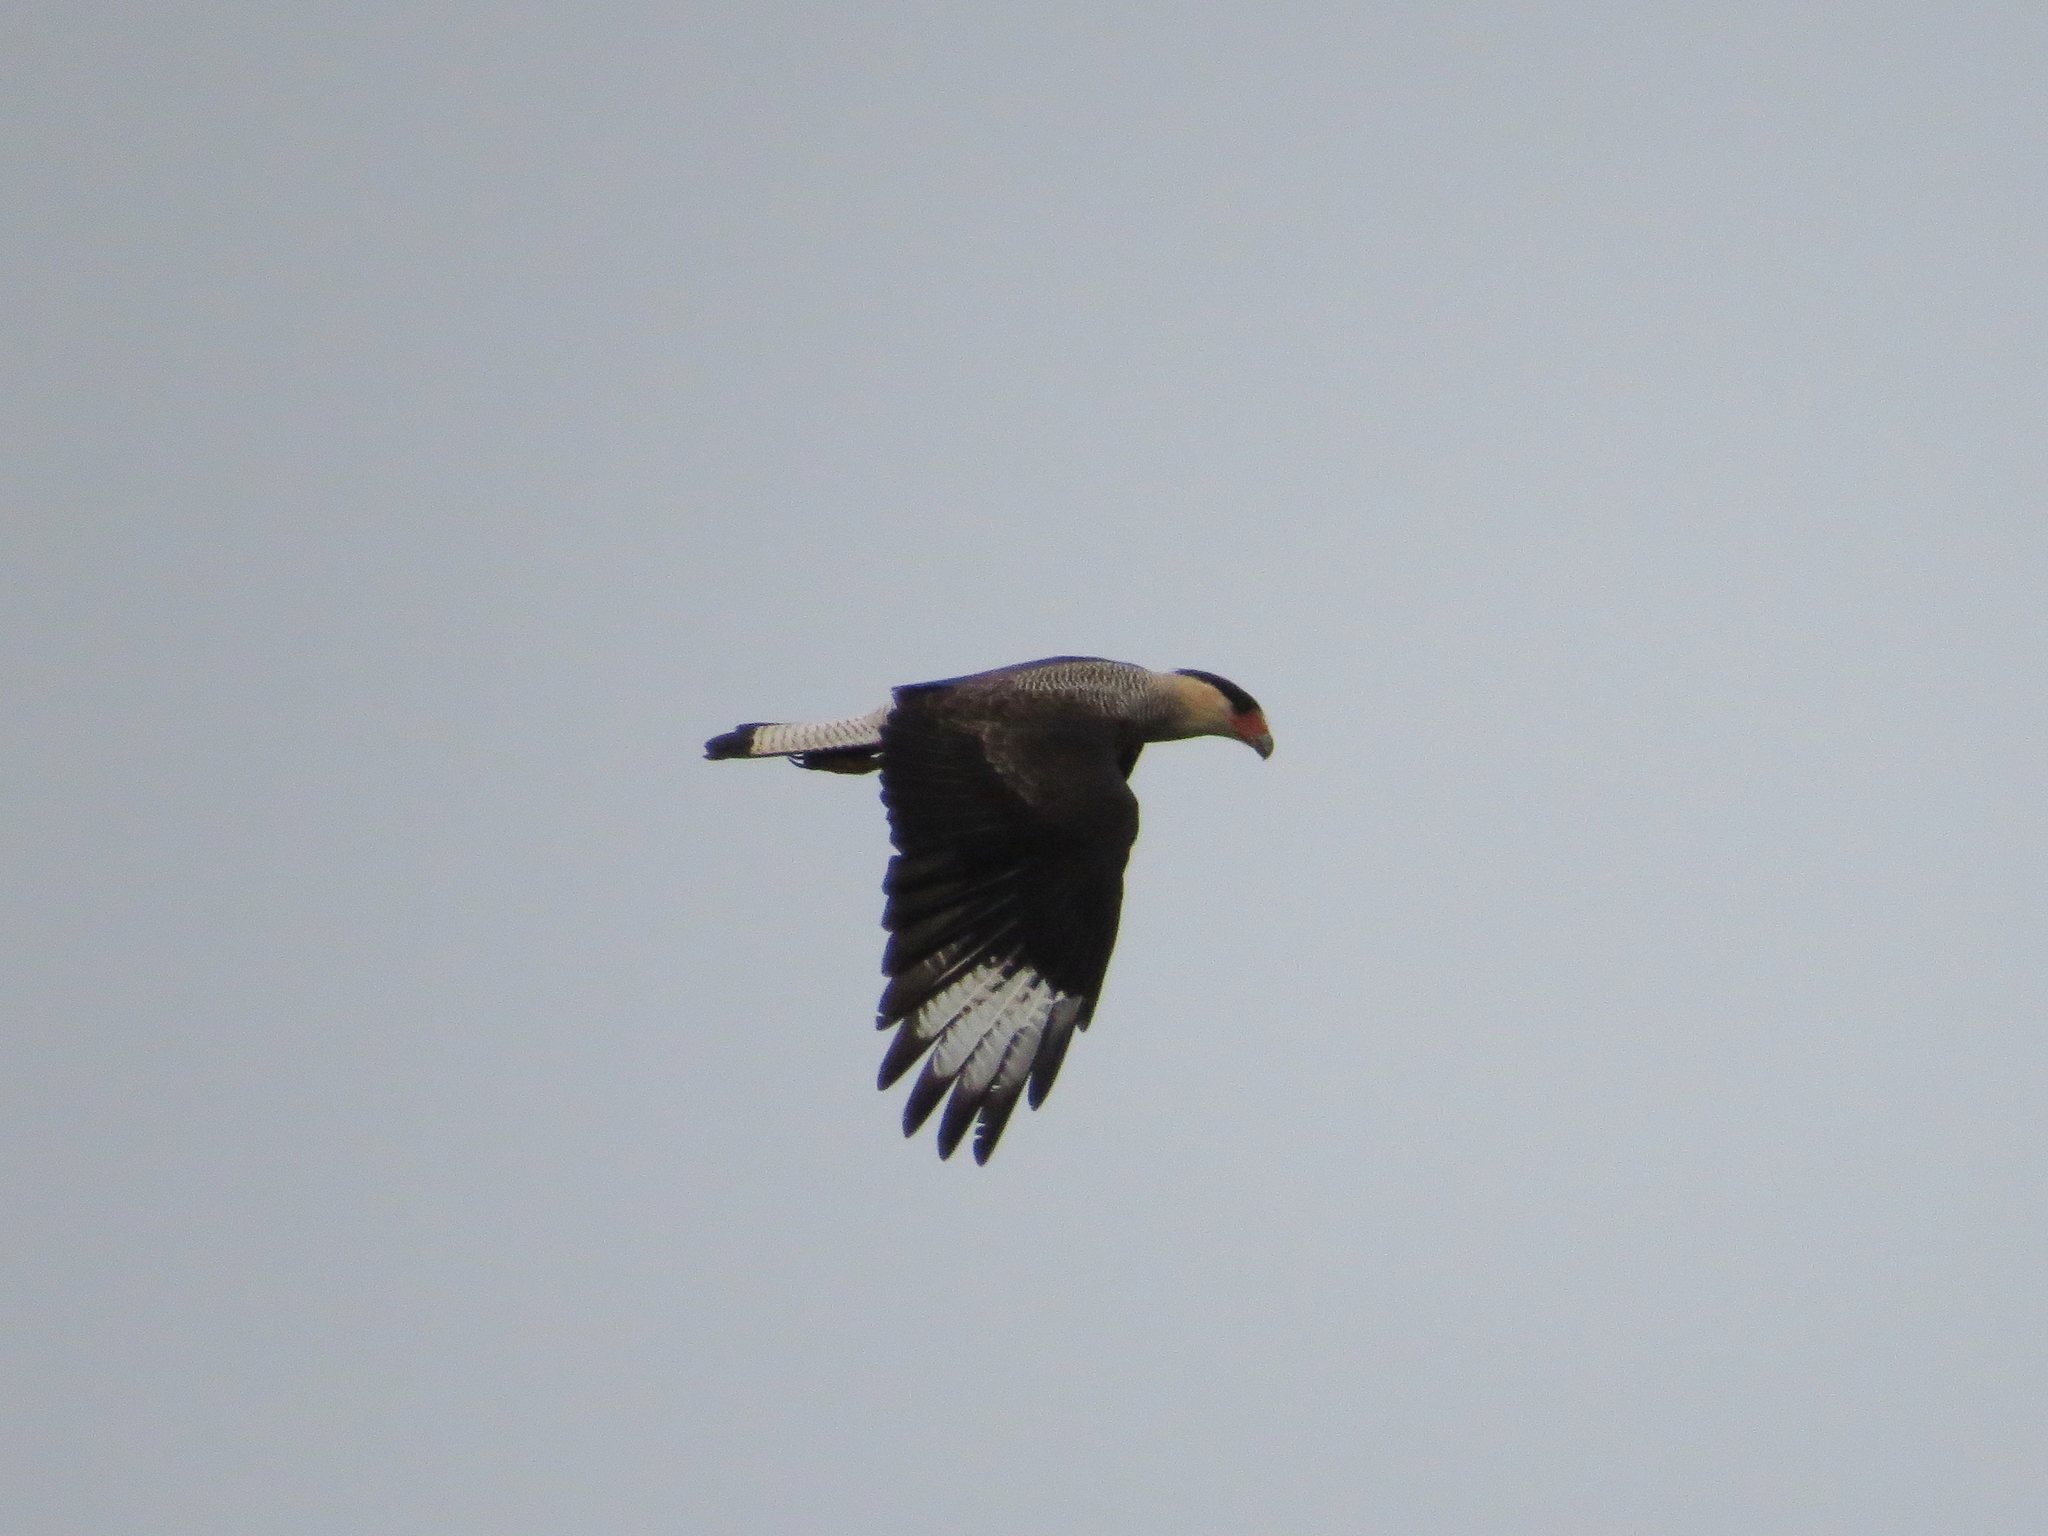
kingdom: Animalia
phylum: Chordata
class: Aves
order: Falconiformes
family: Falconidae
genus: Caracara
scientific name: Caracara plancus
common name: Southern caracara
